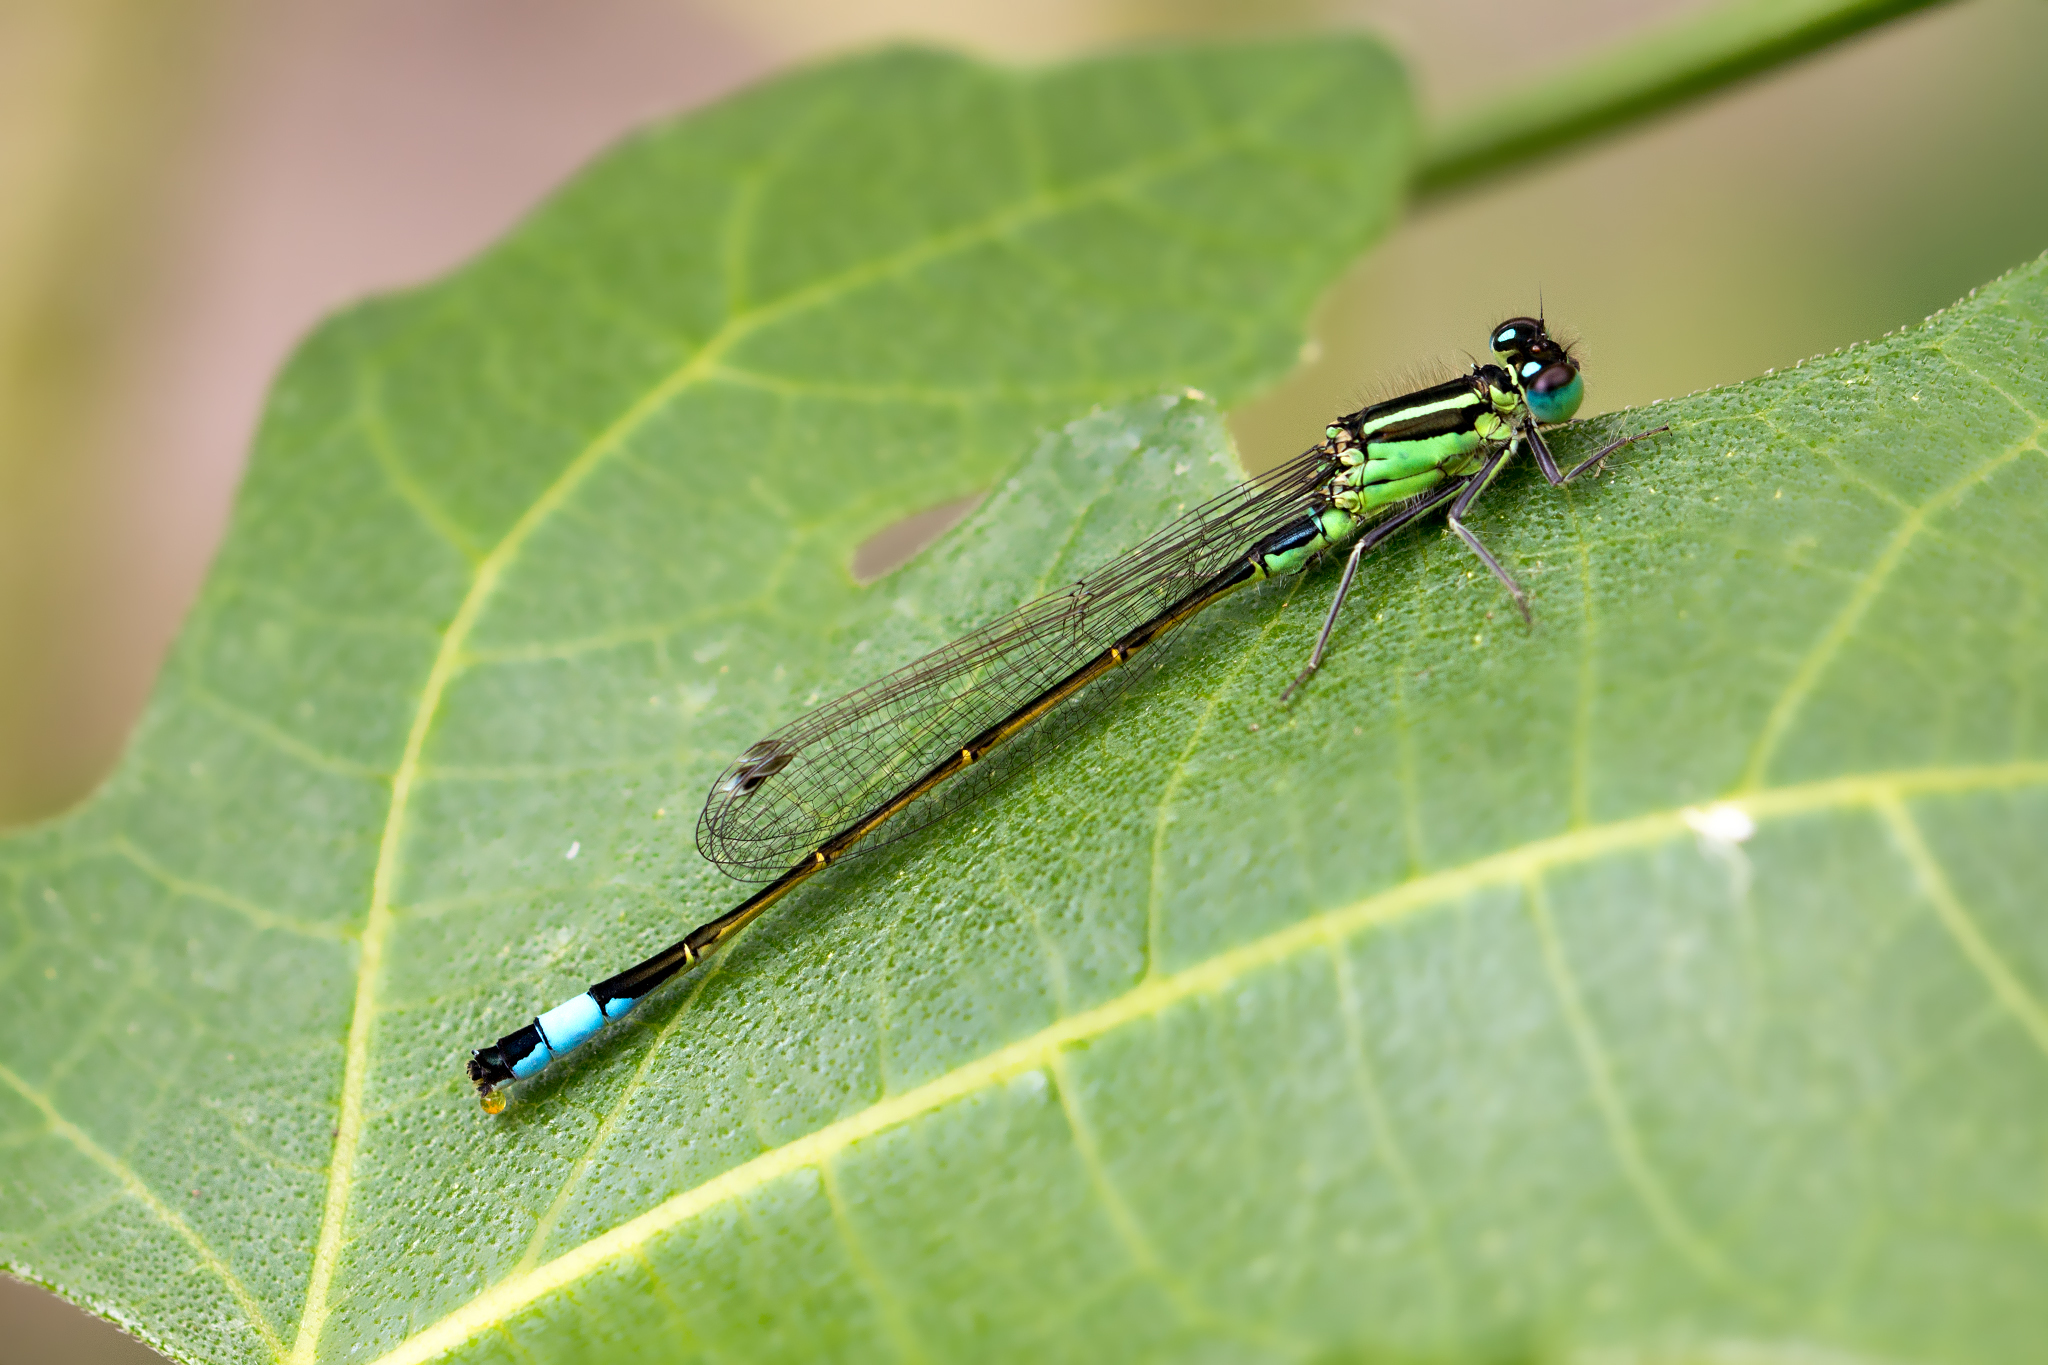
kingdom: Animalia
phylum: Arthropoda
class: Insecta
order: Odonata
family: Coenagrionidae
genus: Ischnura
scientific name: Ischnura elegans
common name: Blue-tailed damselfly
